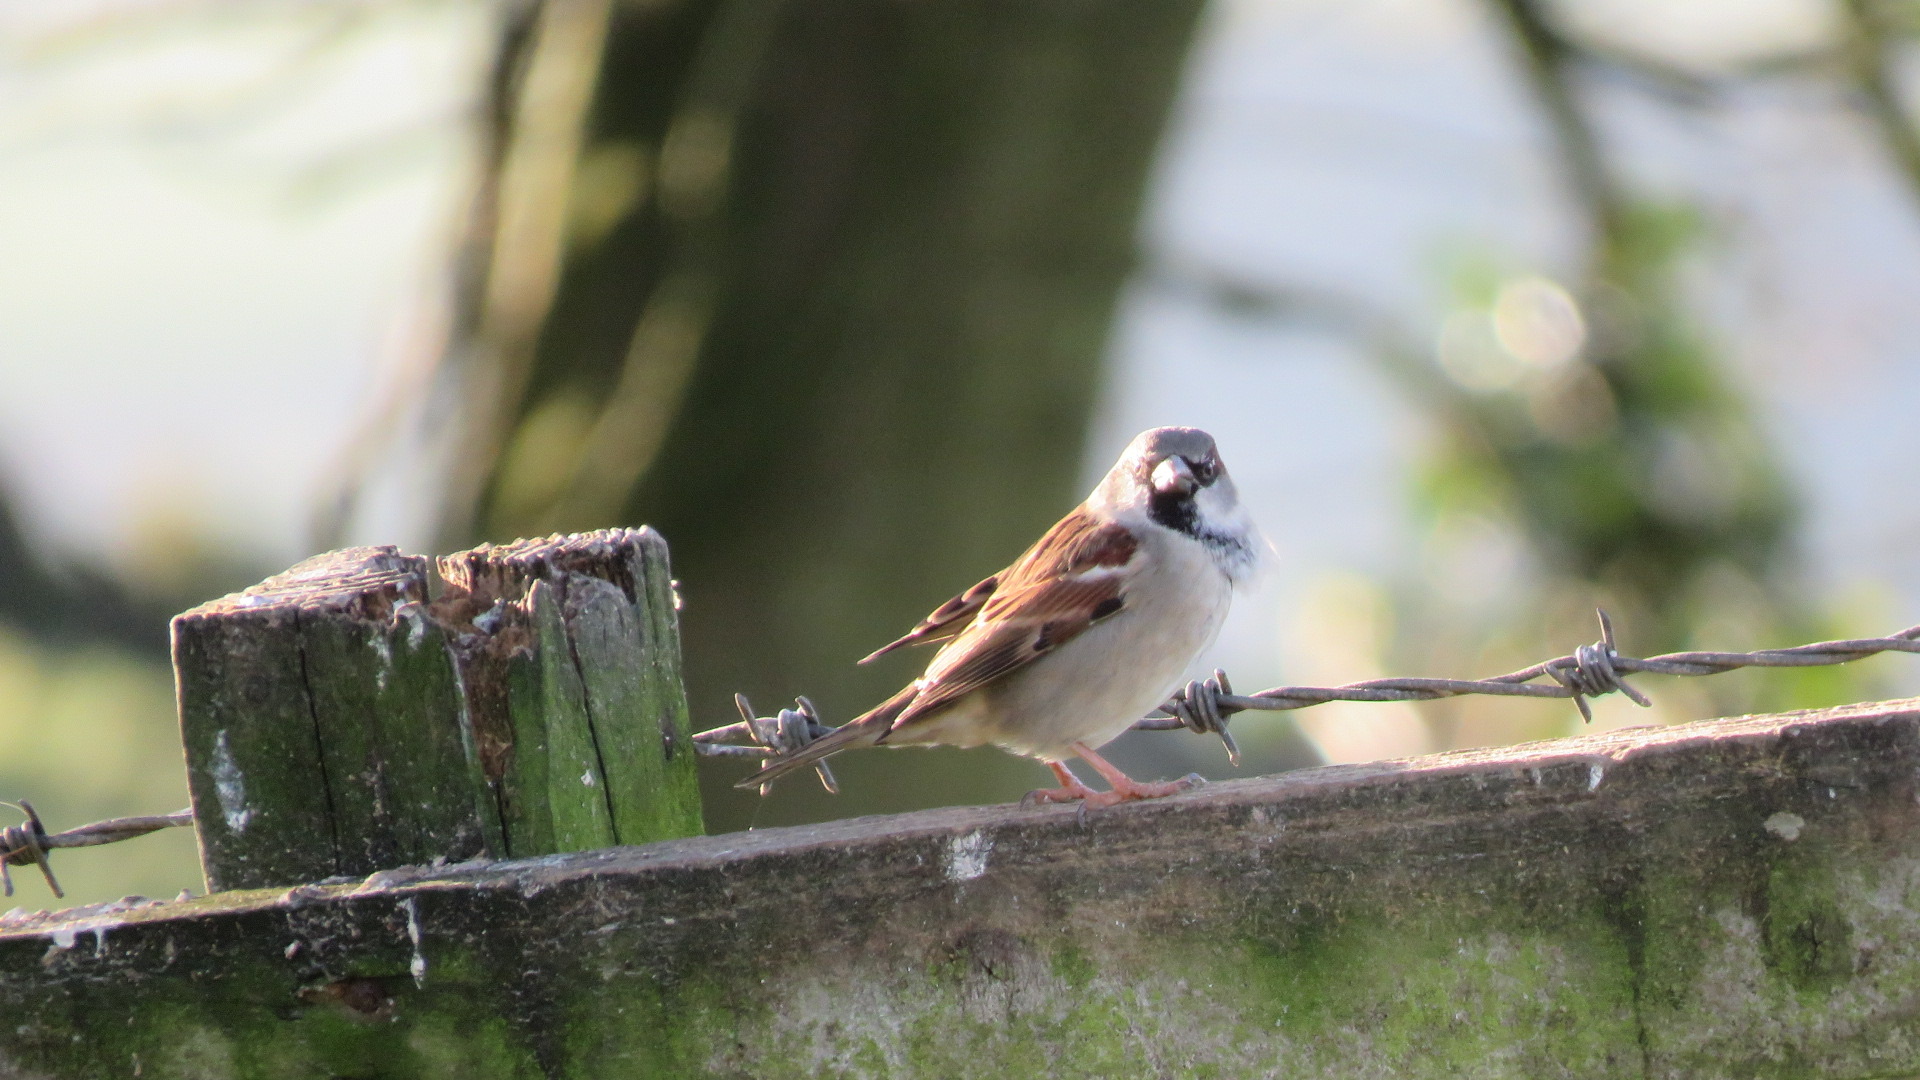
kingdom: Animalia
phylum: Chordata
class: Aves
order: Passeriformes
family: Passeridae
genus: Passer
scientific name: Passer domesticus
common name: House sparrow
